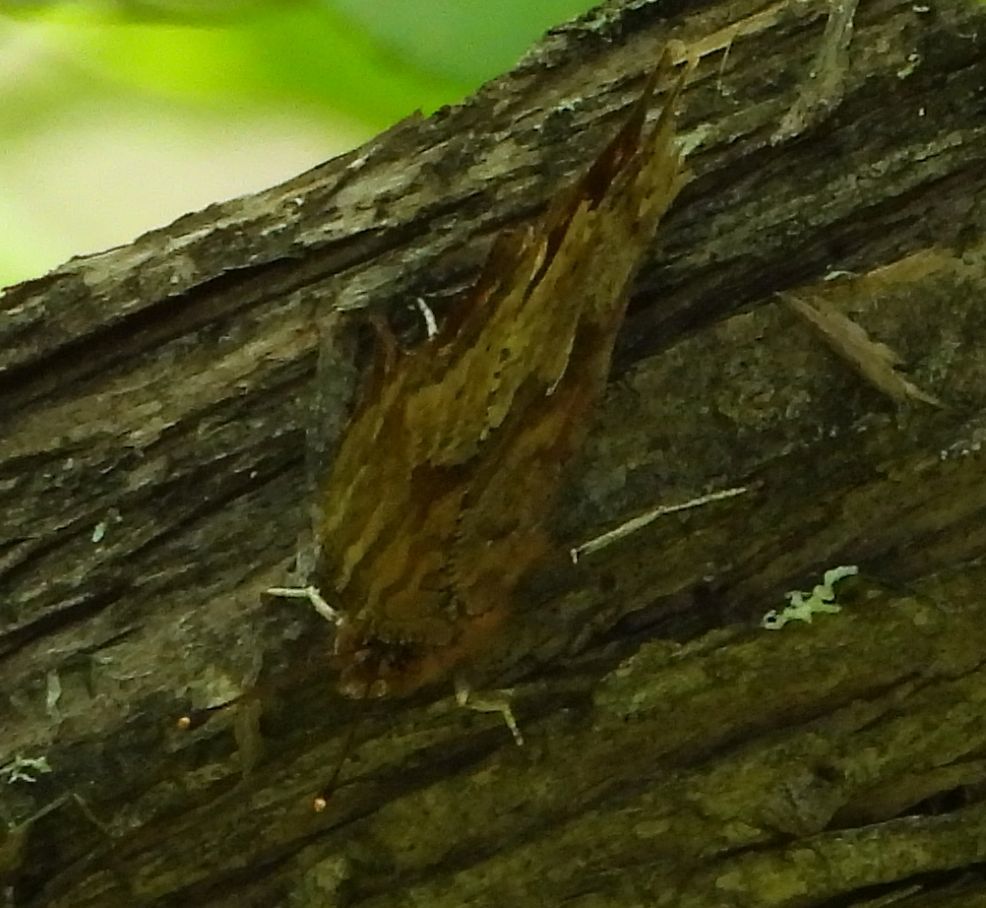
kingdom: Animalia
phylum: Arthropoda
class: Insecta
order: Lepidoptera
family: Nymphalidae
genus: Polygonia
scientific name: Polygonia comma
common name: Eastern comma
